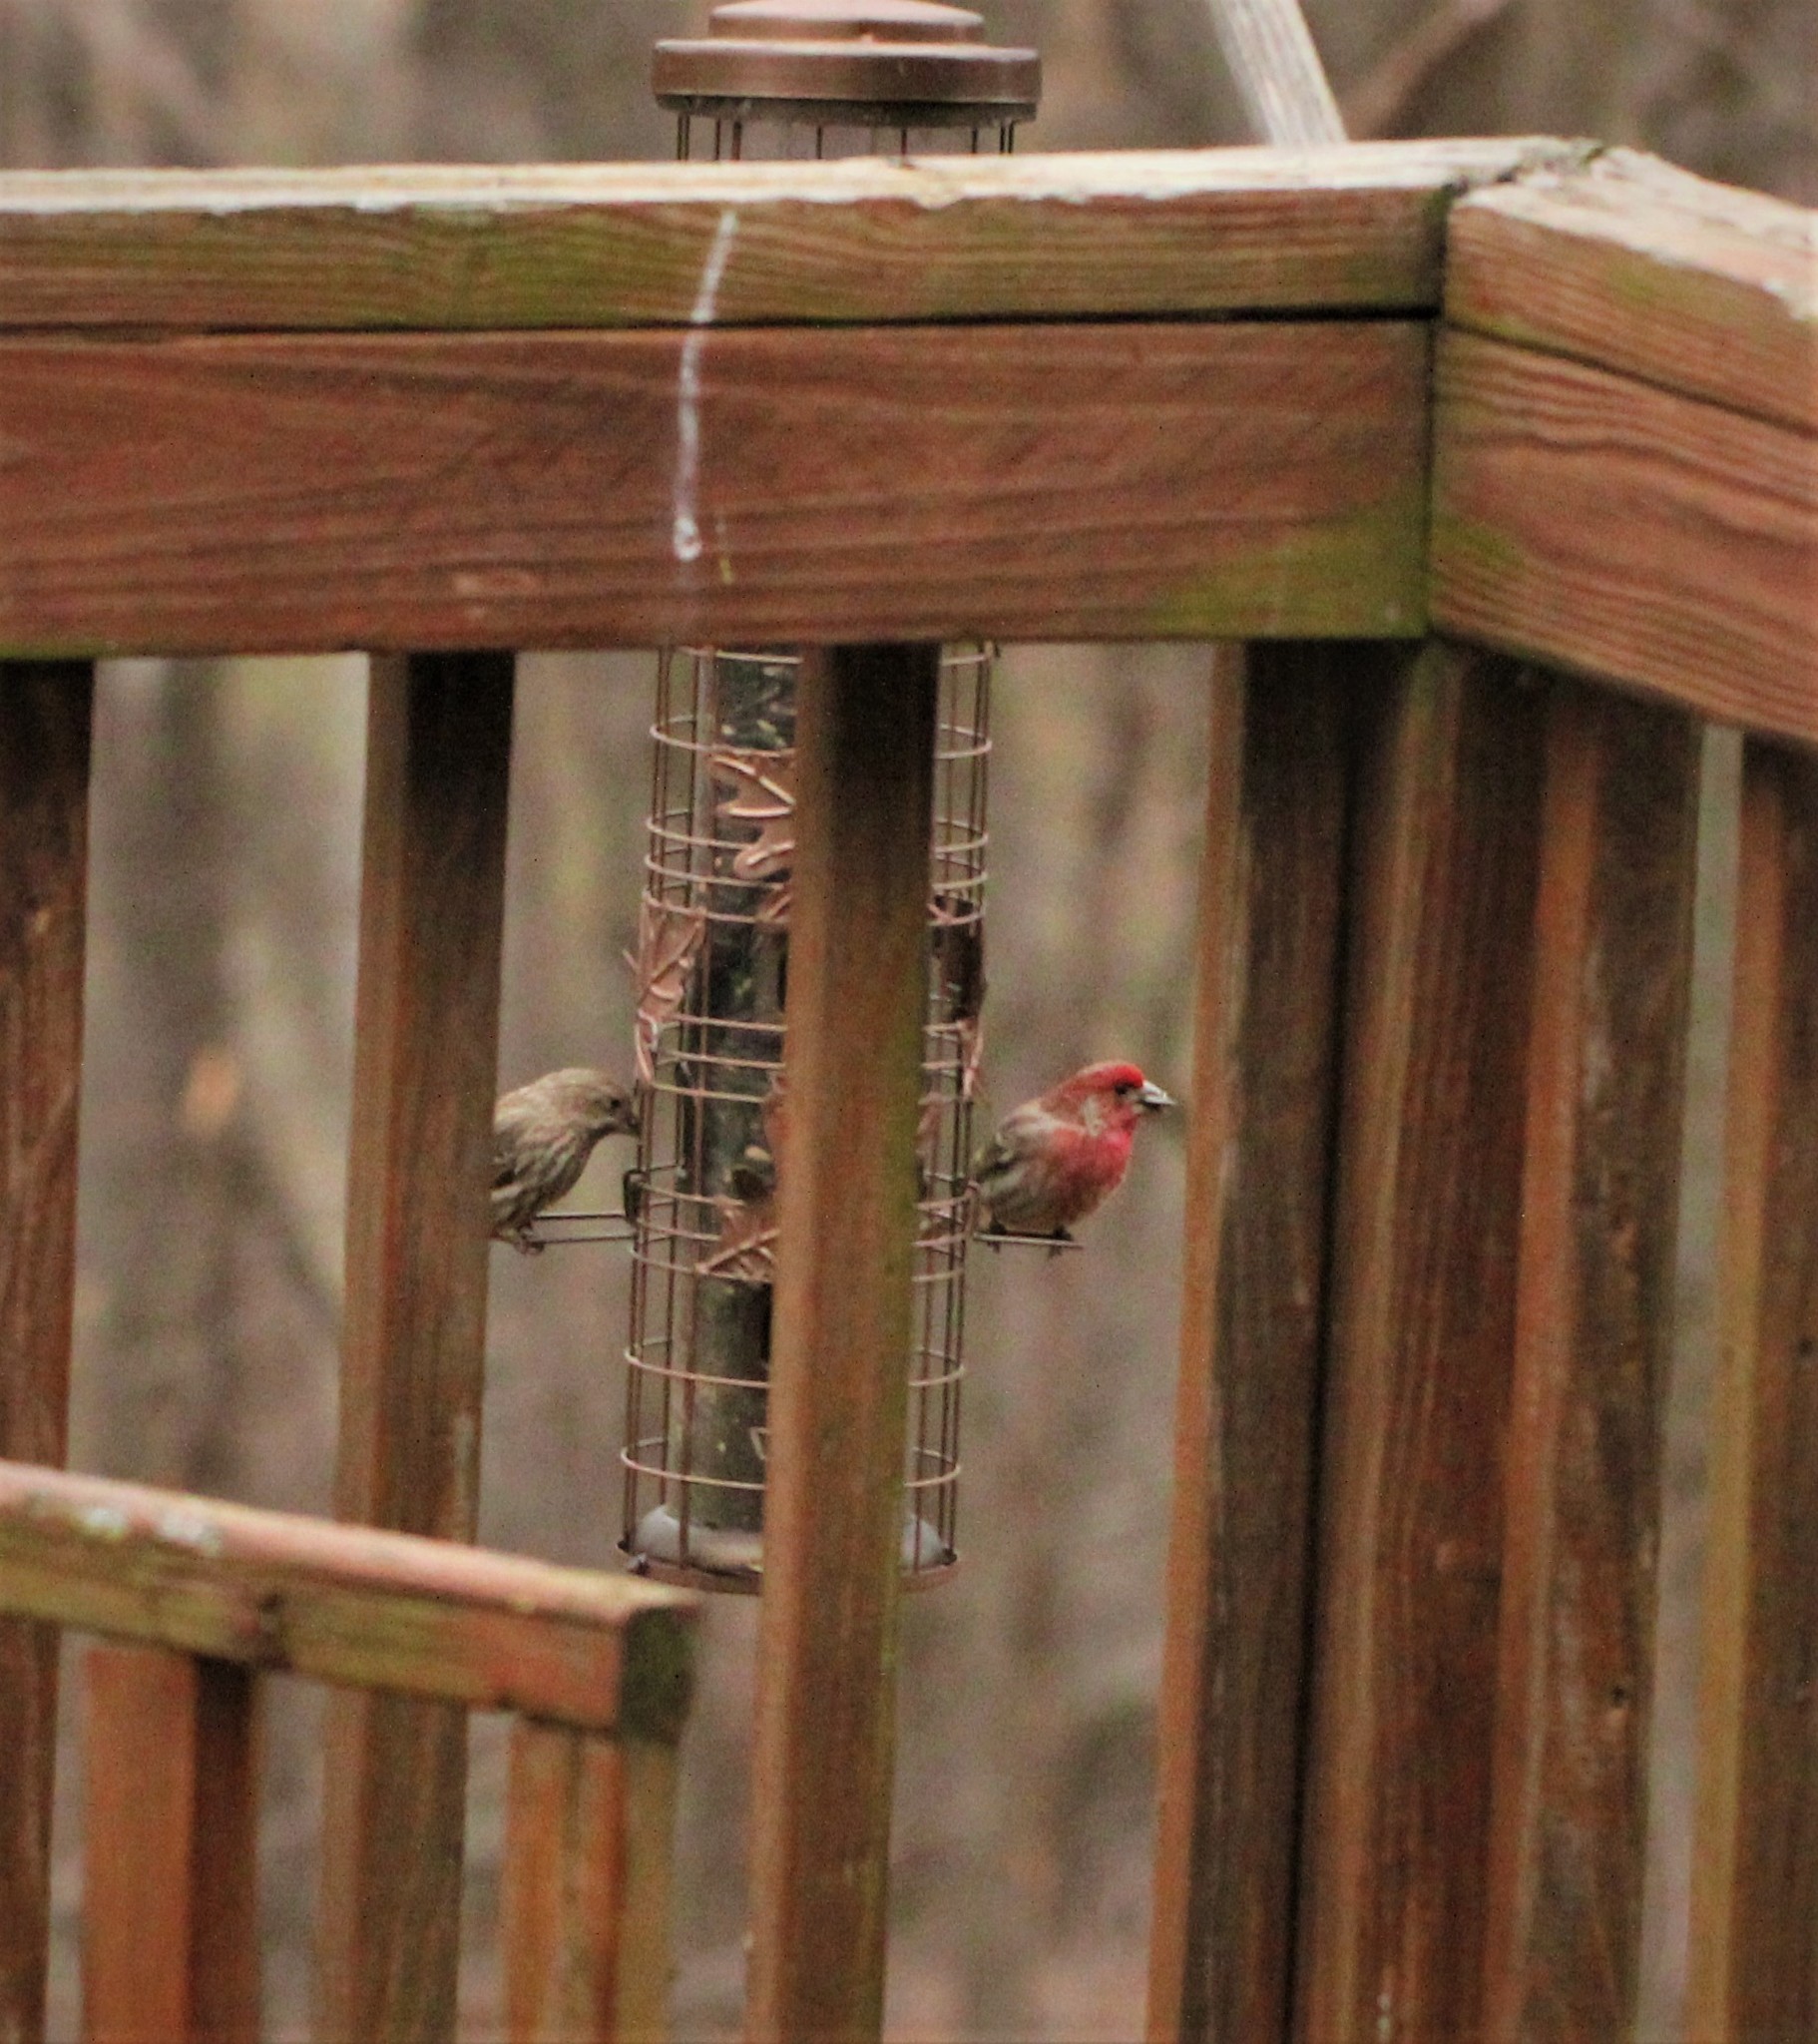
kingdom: Animalia
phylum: Chordata
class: Aves
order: Passeriformes
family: Fringillidae
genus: Haemorhous
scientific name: Haemorhous mexicanus
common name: House finch
